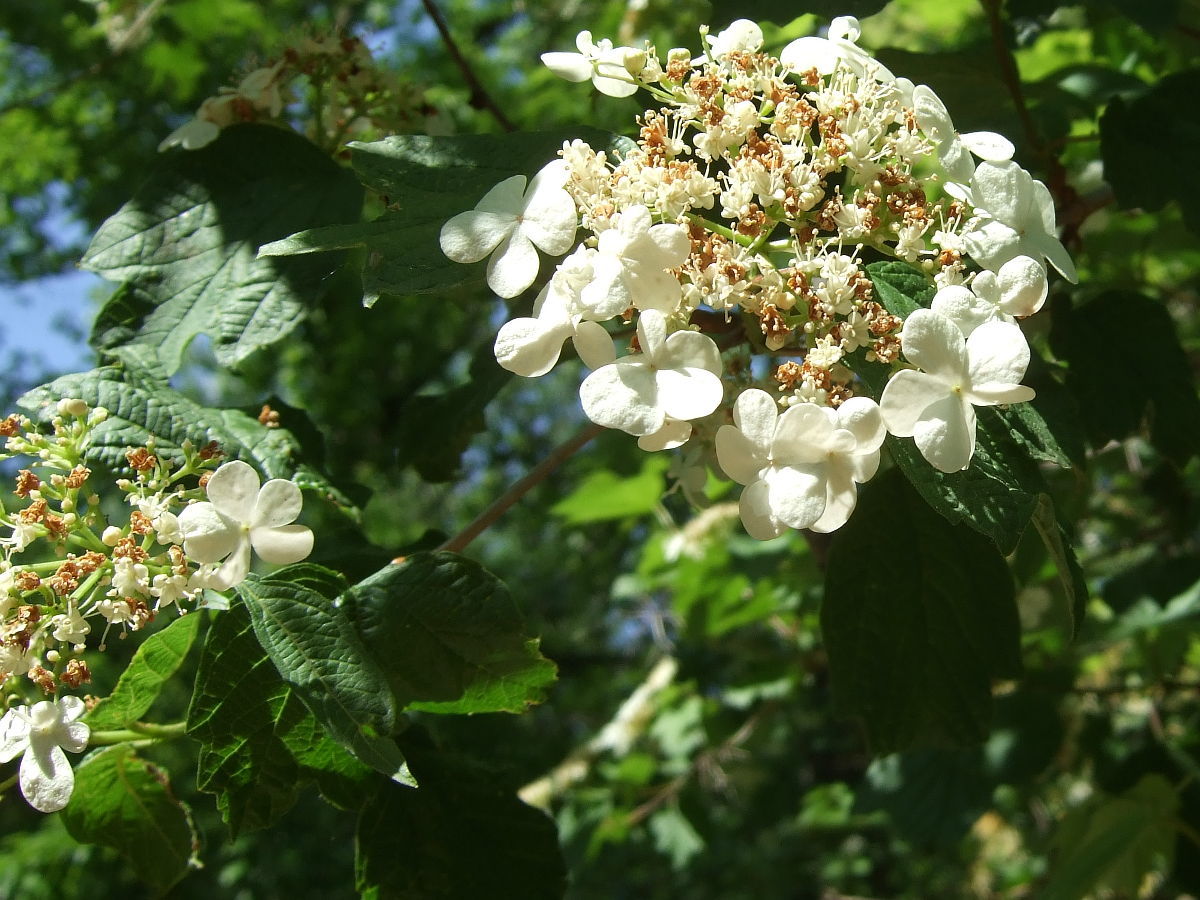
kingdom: Plantae
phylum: Tracheophyta
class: Magnoliopsida
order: Dipsacales
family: Viburnaceae
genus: Viburnum
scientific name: Viburnum opulus
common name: Guelder-rose
